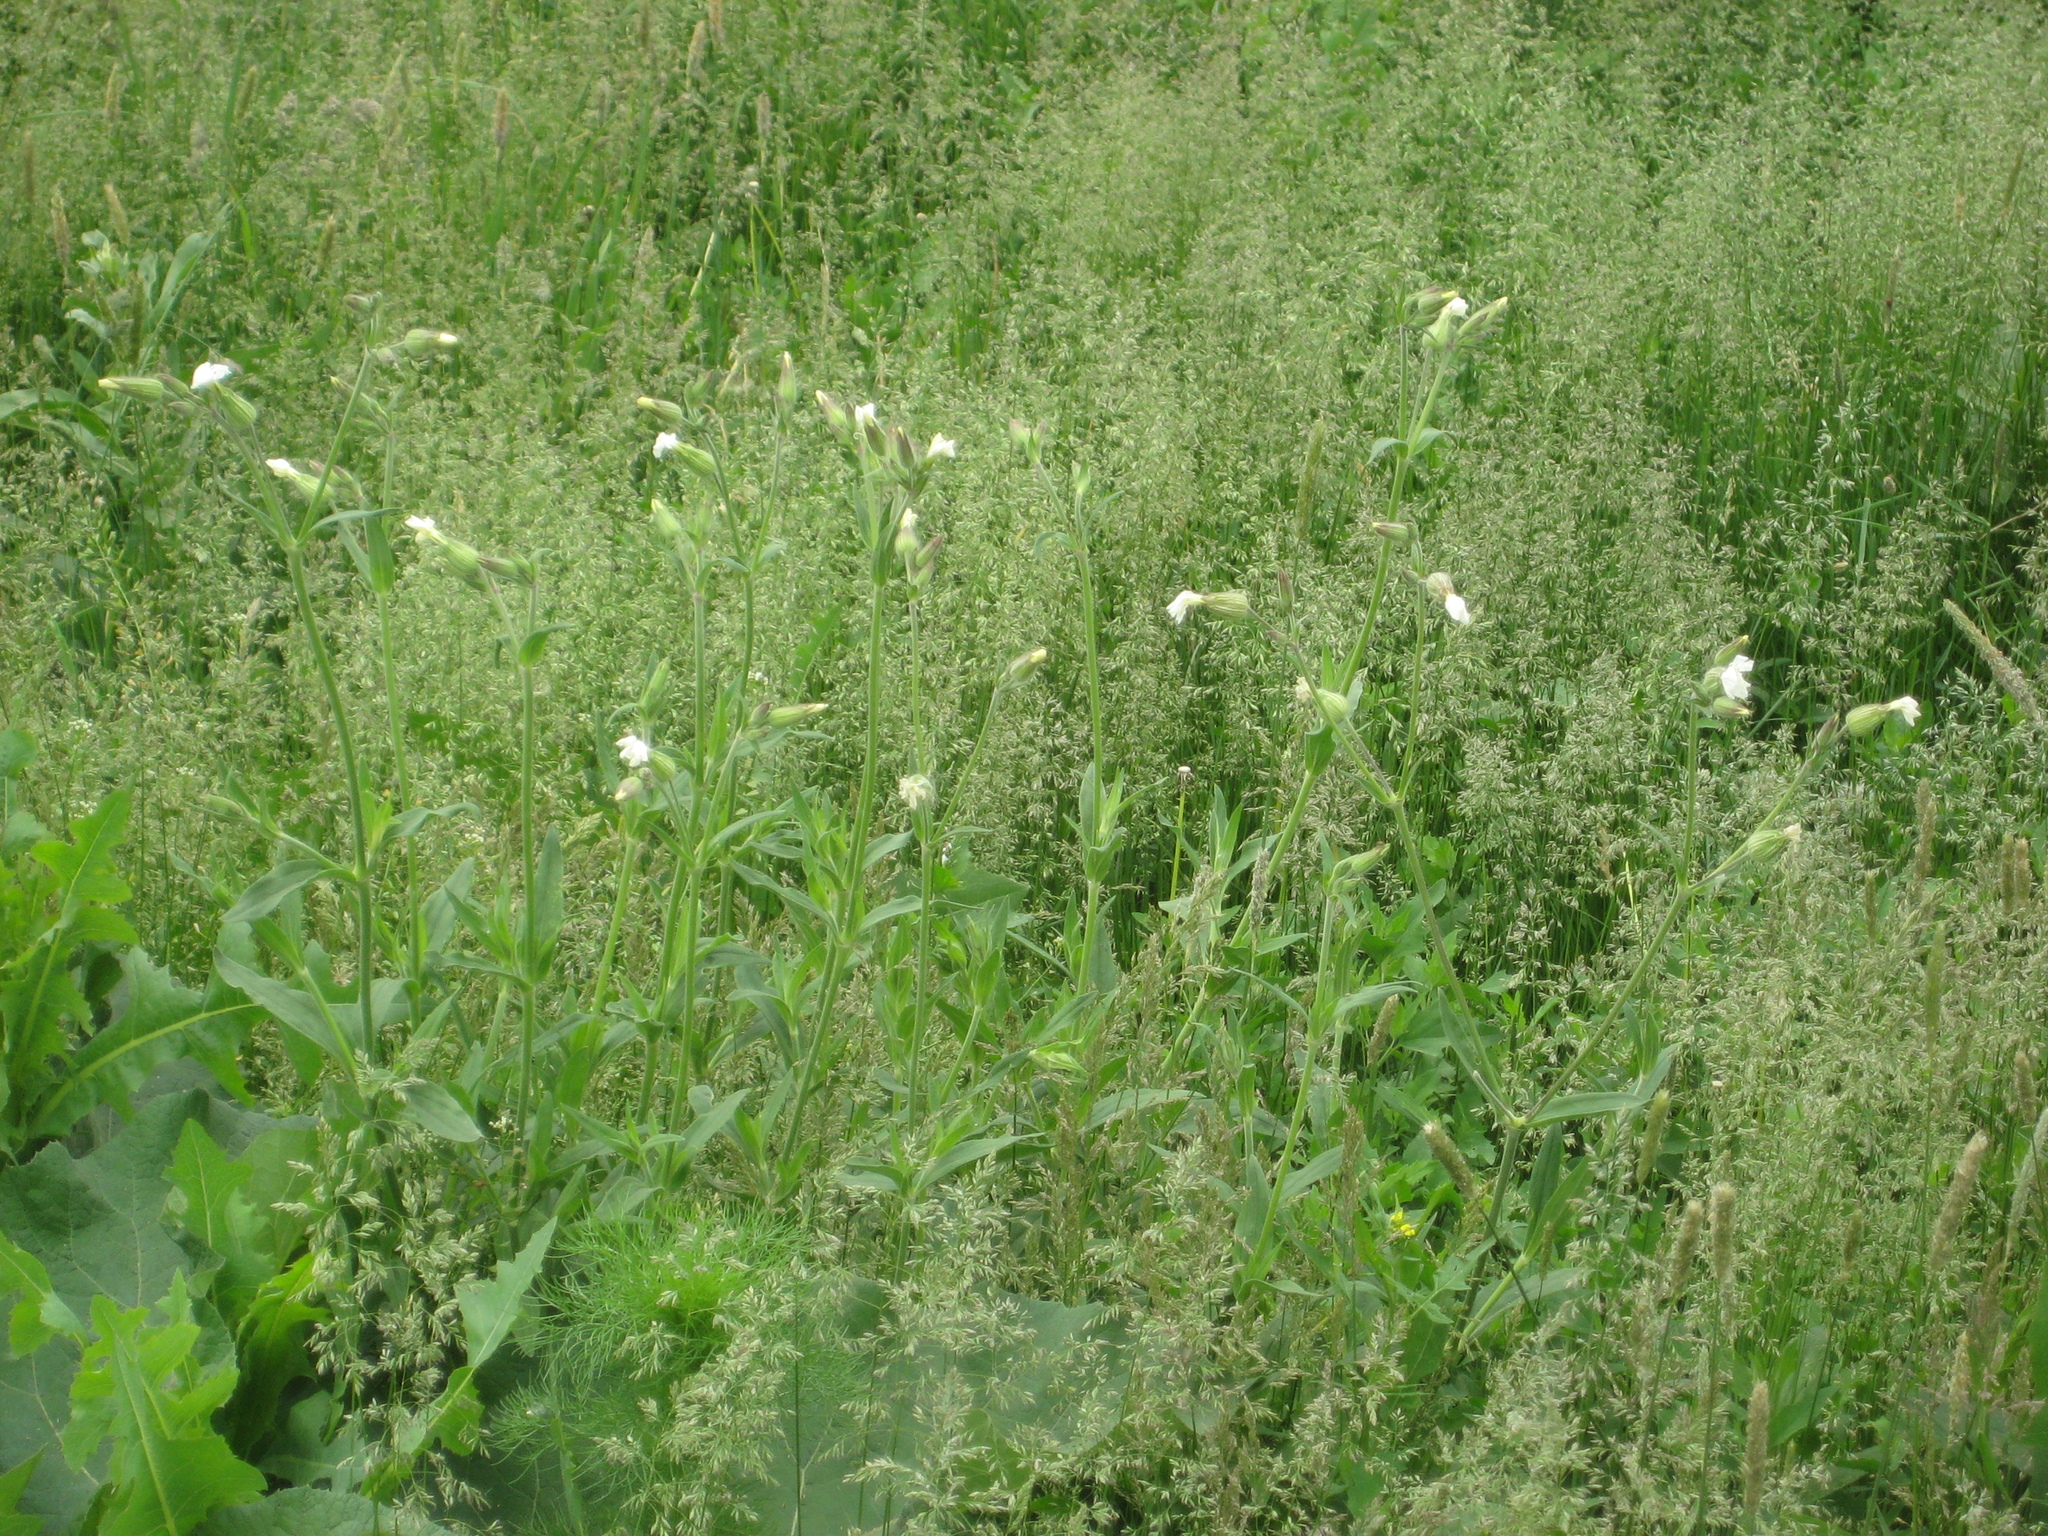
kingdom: Plantae
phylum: Tracheophyta
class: Magnoliopsida
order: Caryophyllales
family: Caryophyllaceae
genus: Silene
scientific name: Silene latifolia
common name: White campion
